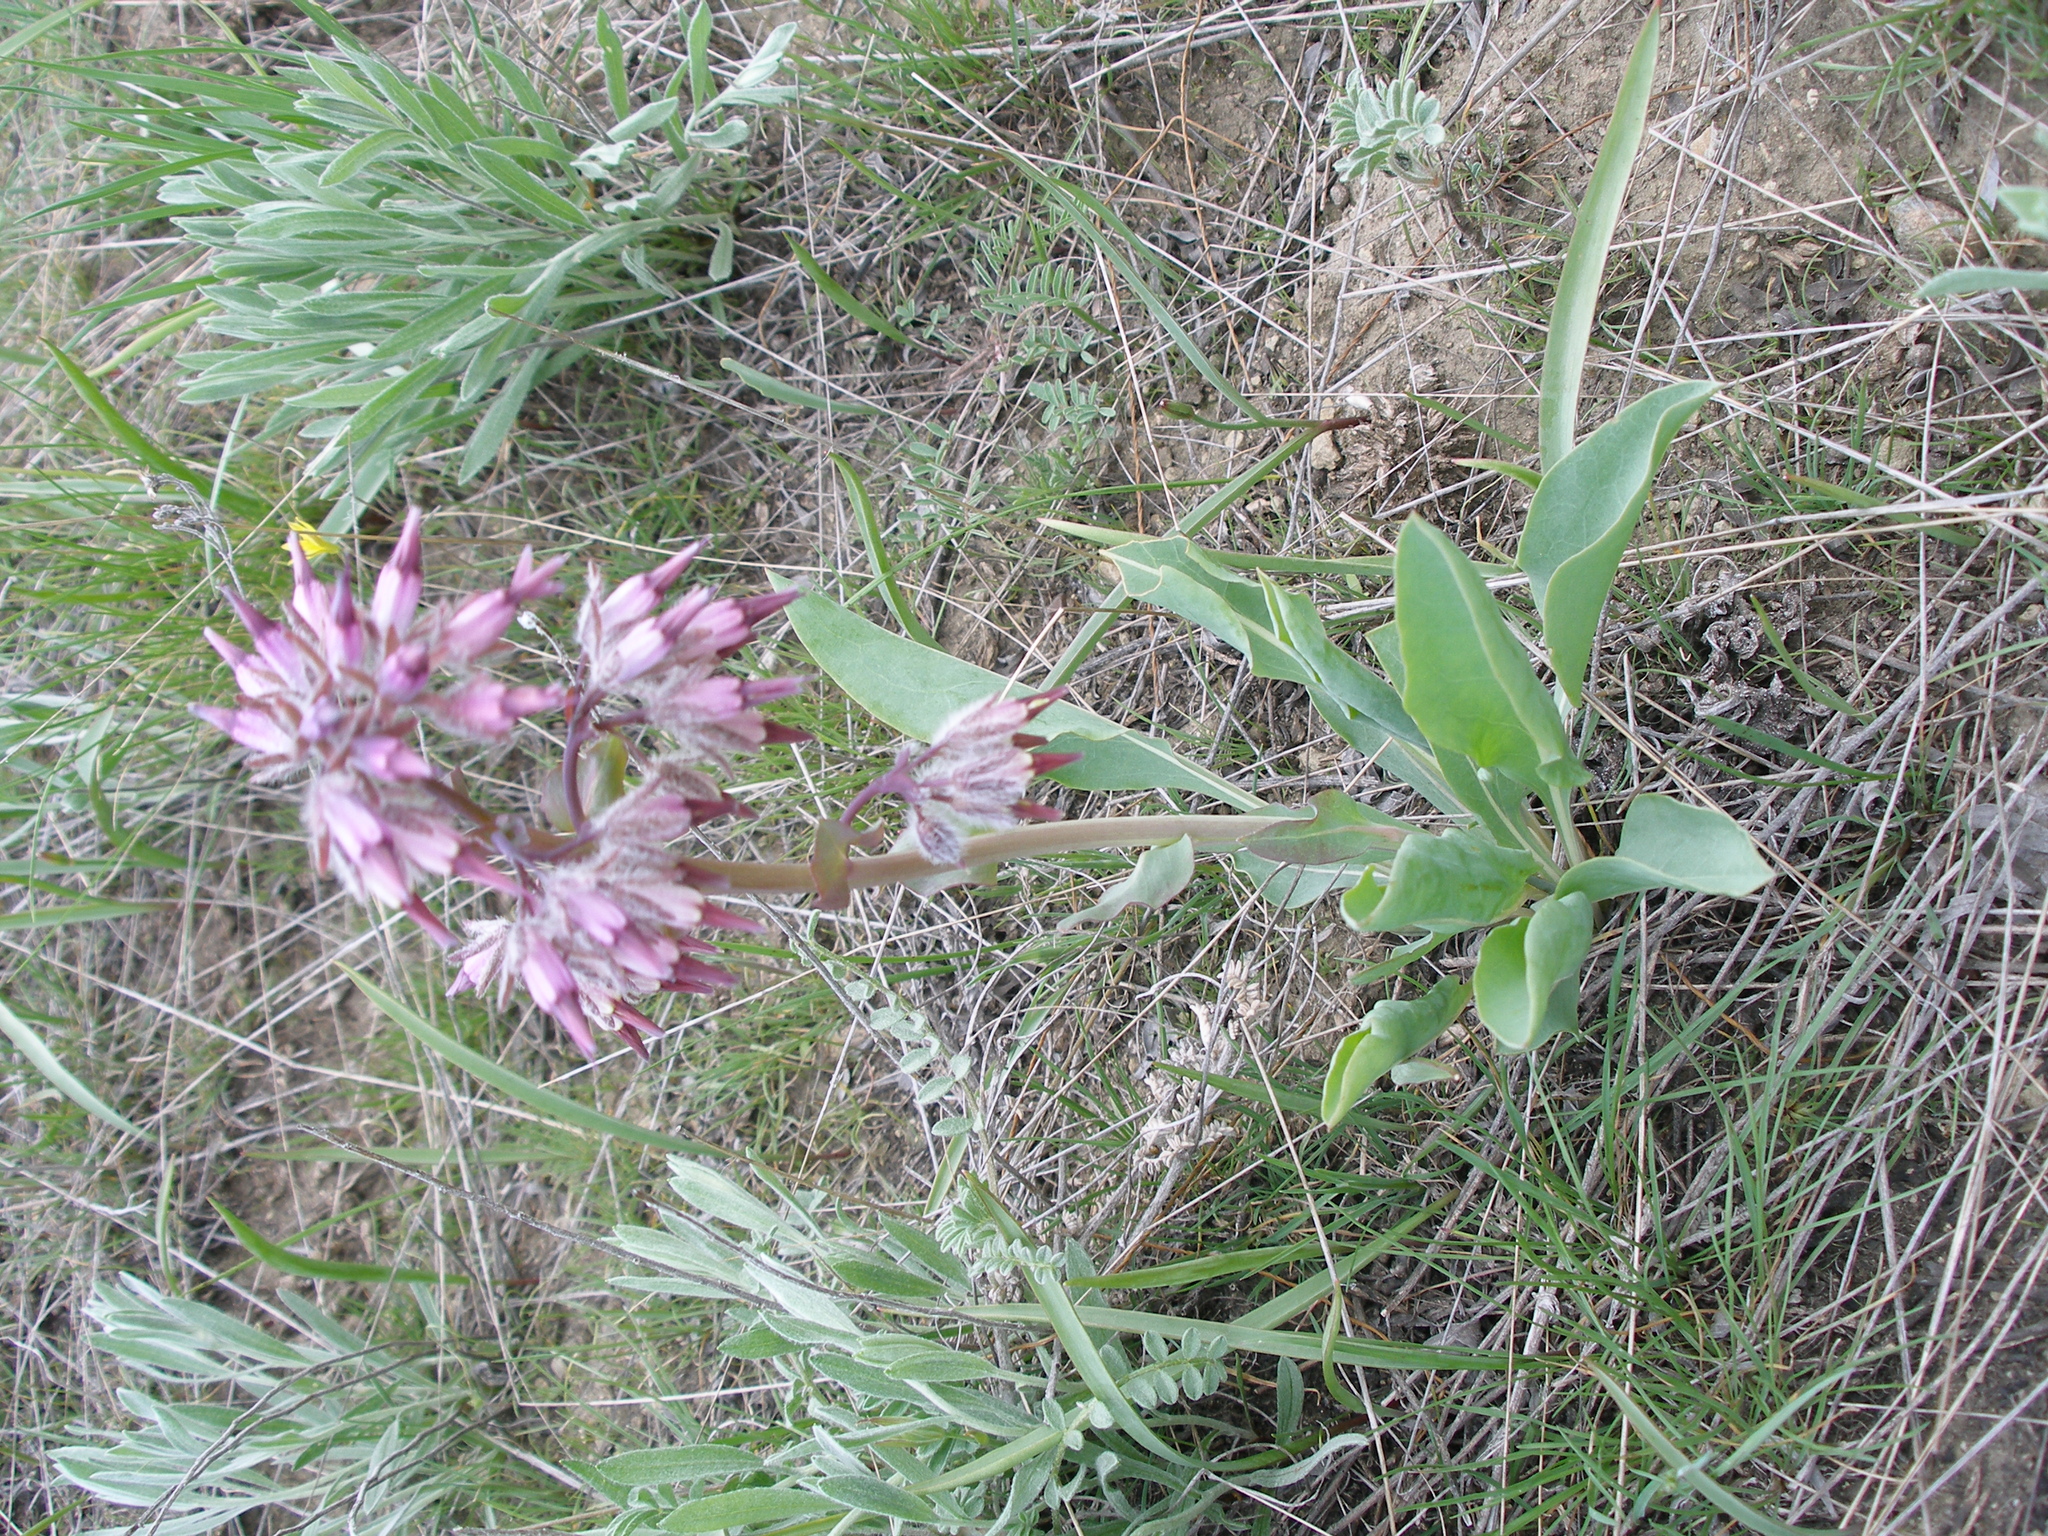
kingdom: Plantae
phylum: Tracheophyta
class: Magnoliopsida
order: Boraginales
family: Boraginaceae
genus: Rindera
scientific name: Rindera tetraspis
